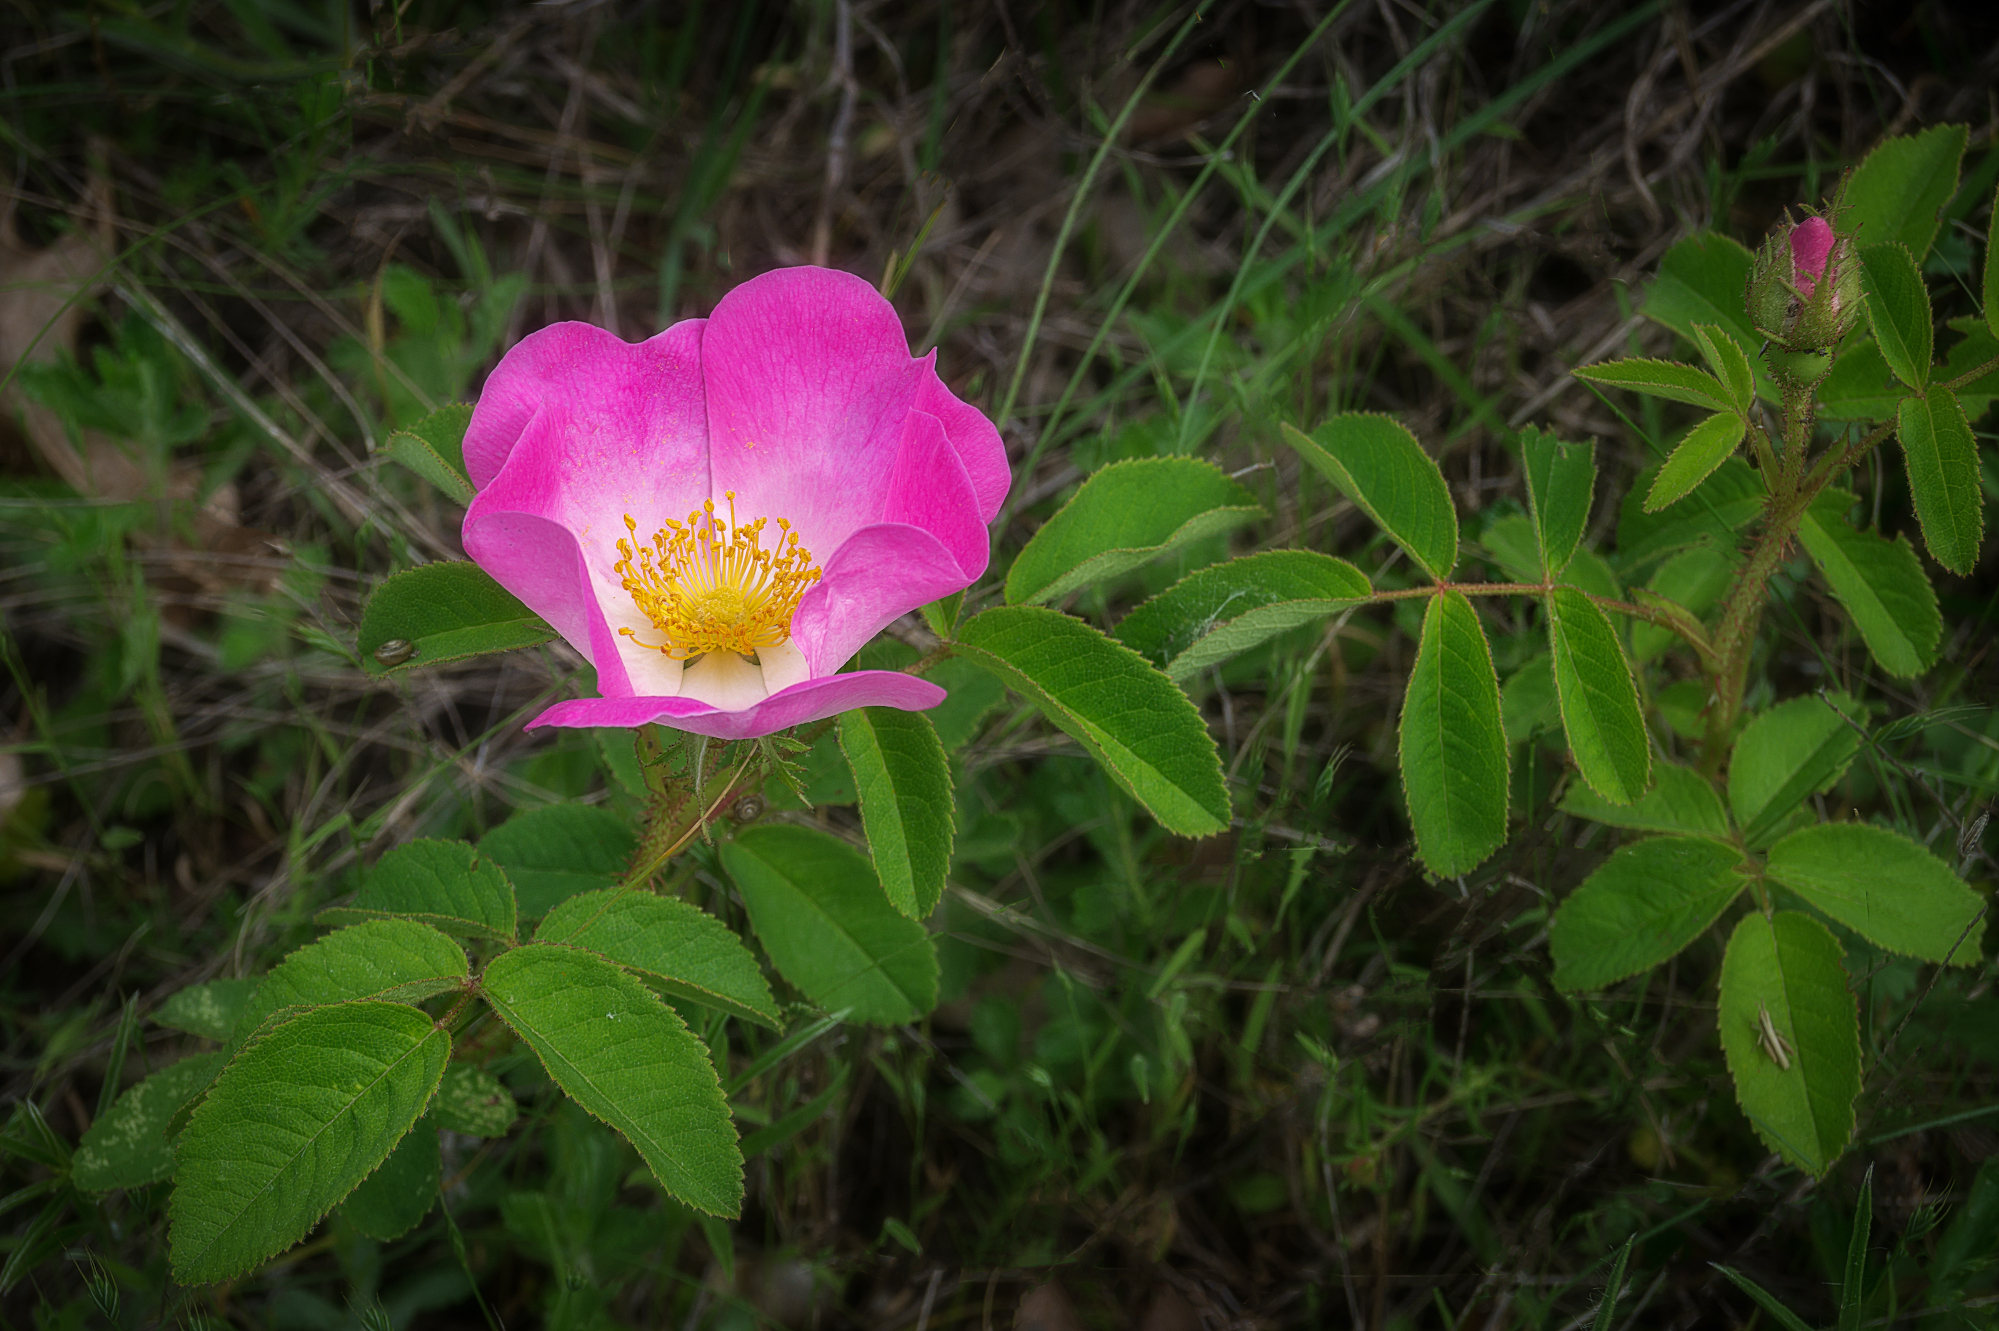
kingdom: Plantae
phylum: Tracheophyta
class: Magnoliopsida
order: Rosales
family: Rosaceae
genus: Rosa
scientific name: Rosa gallica
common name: French rose
